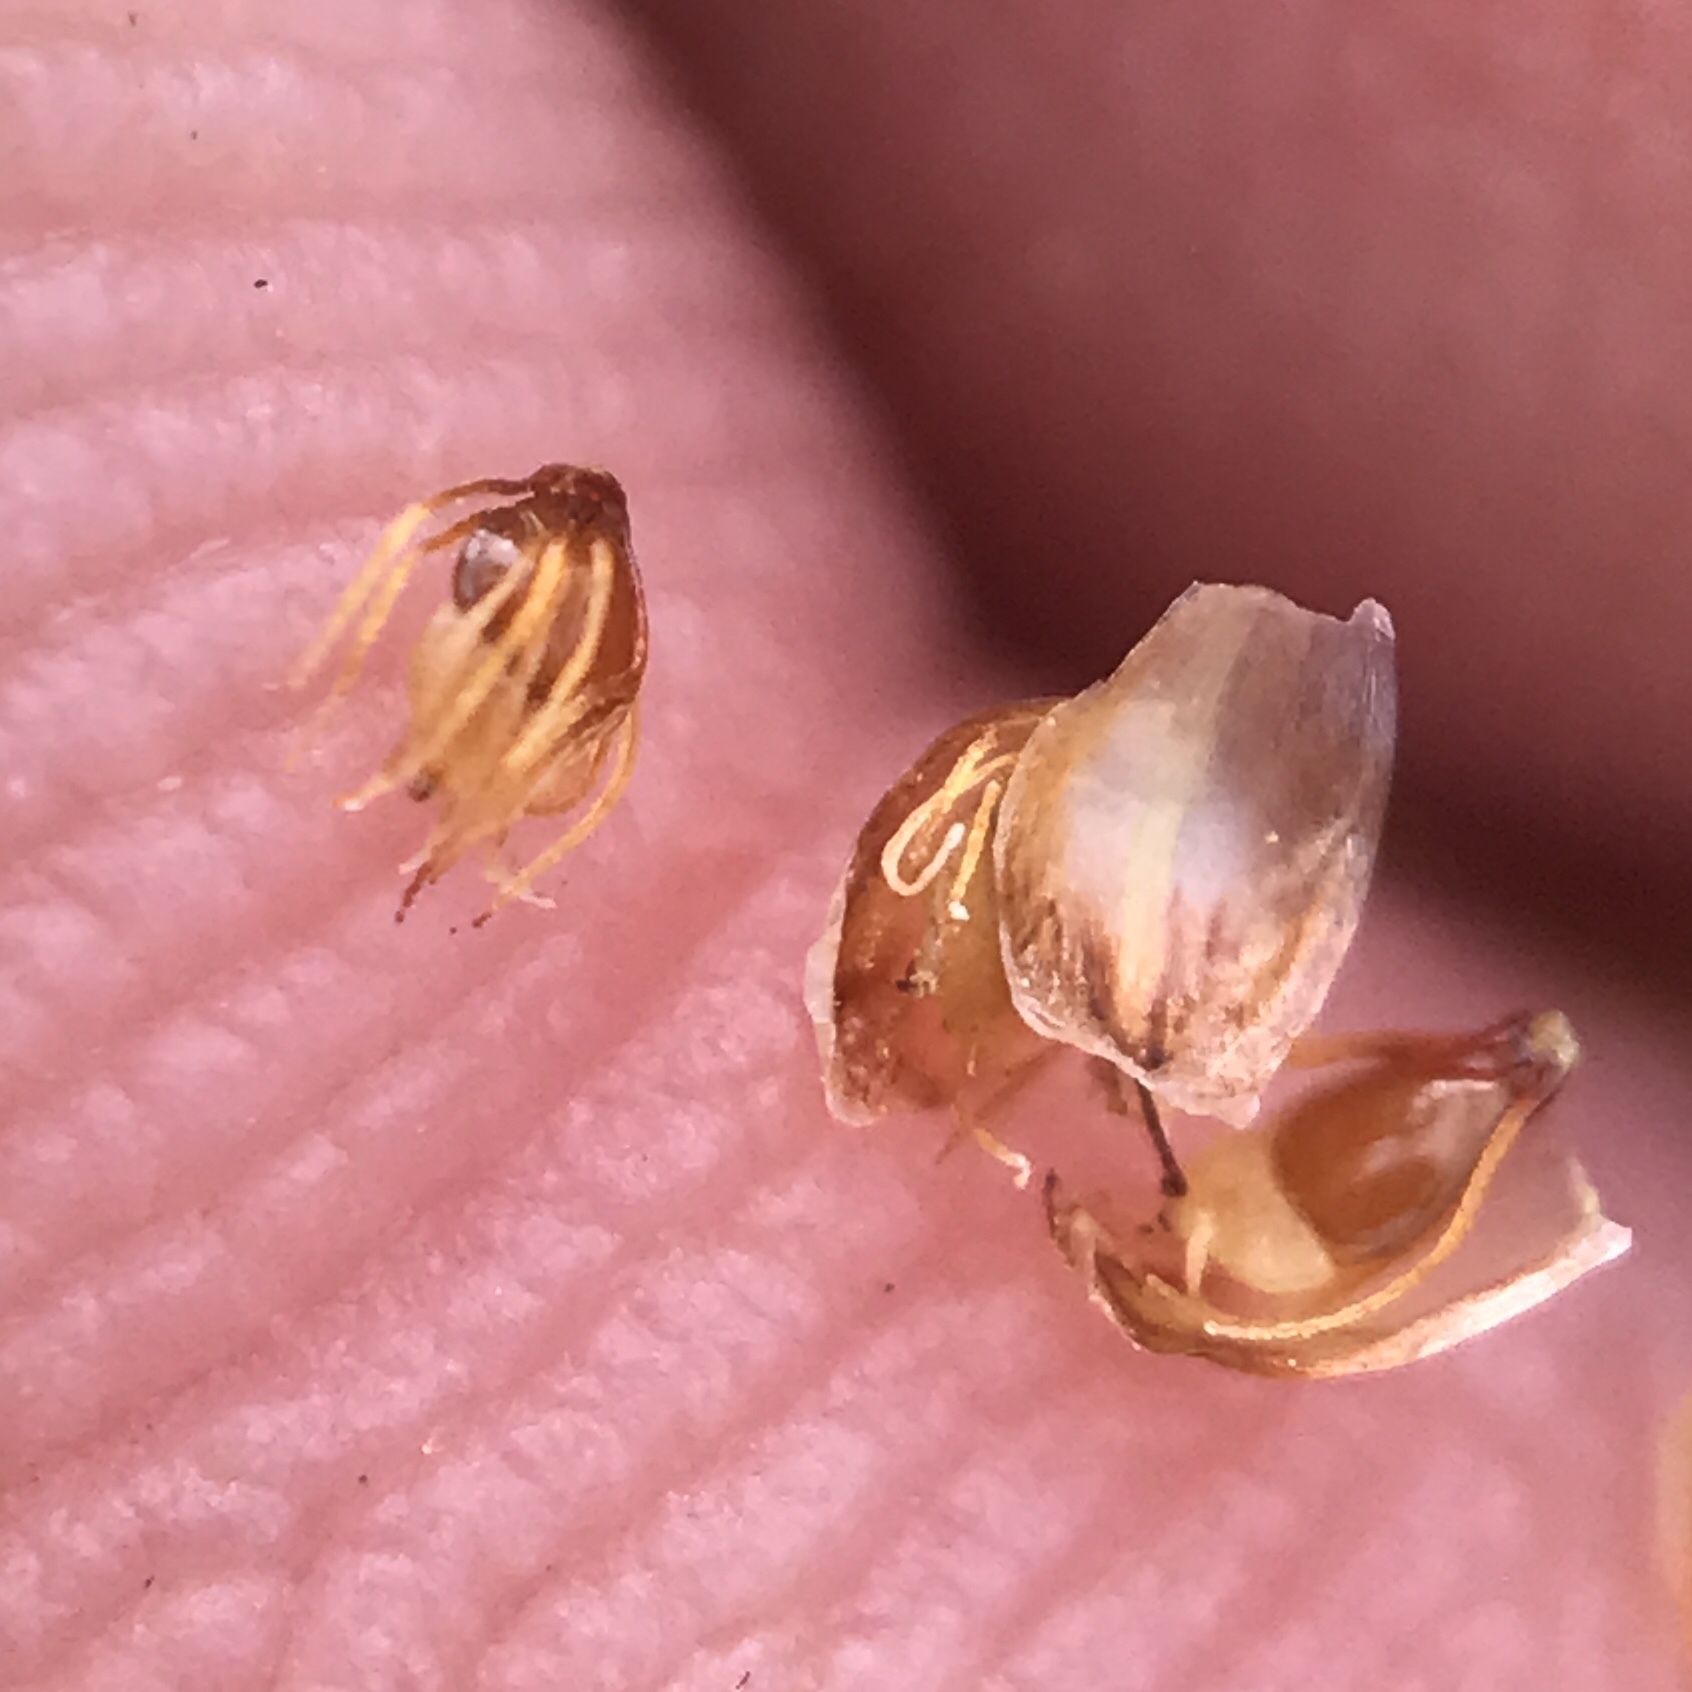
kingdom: Plantae
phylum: Tracheophyta
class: Liliopsida
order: Poales
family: Cyperaceae
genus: Eleocharis
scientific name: Eleocharis obtusa
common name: Blunt spikerush
